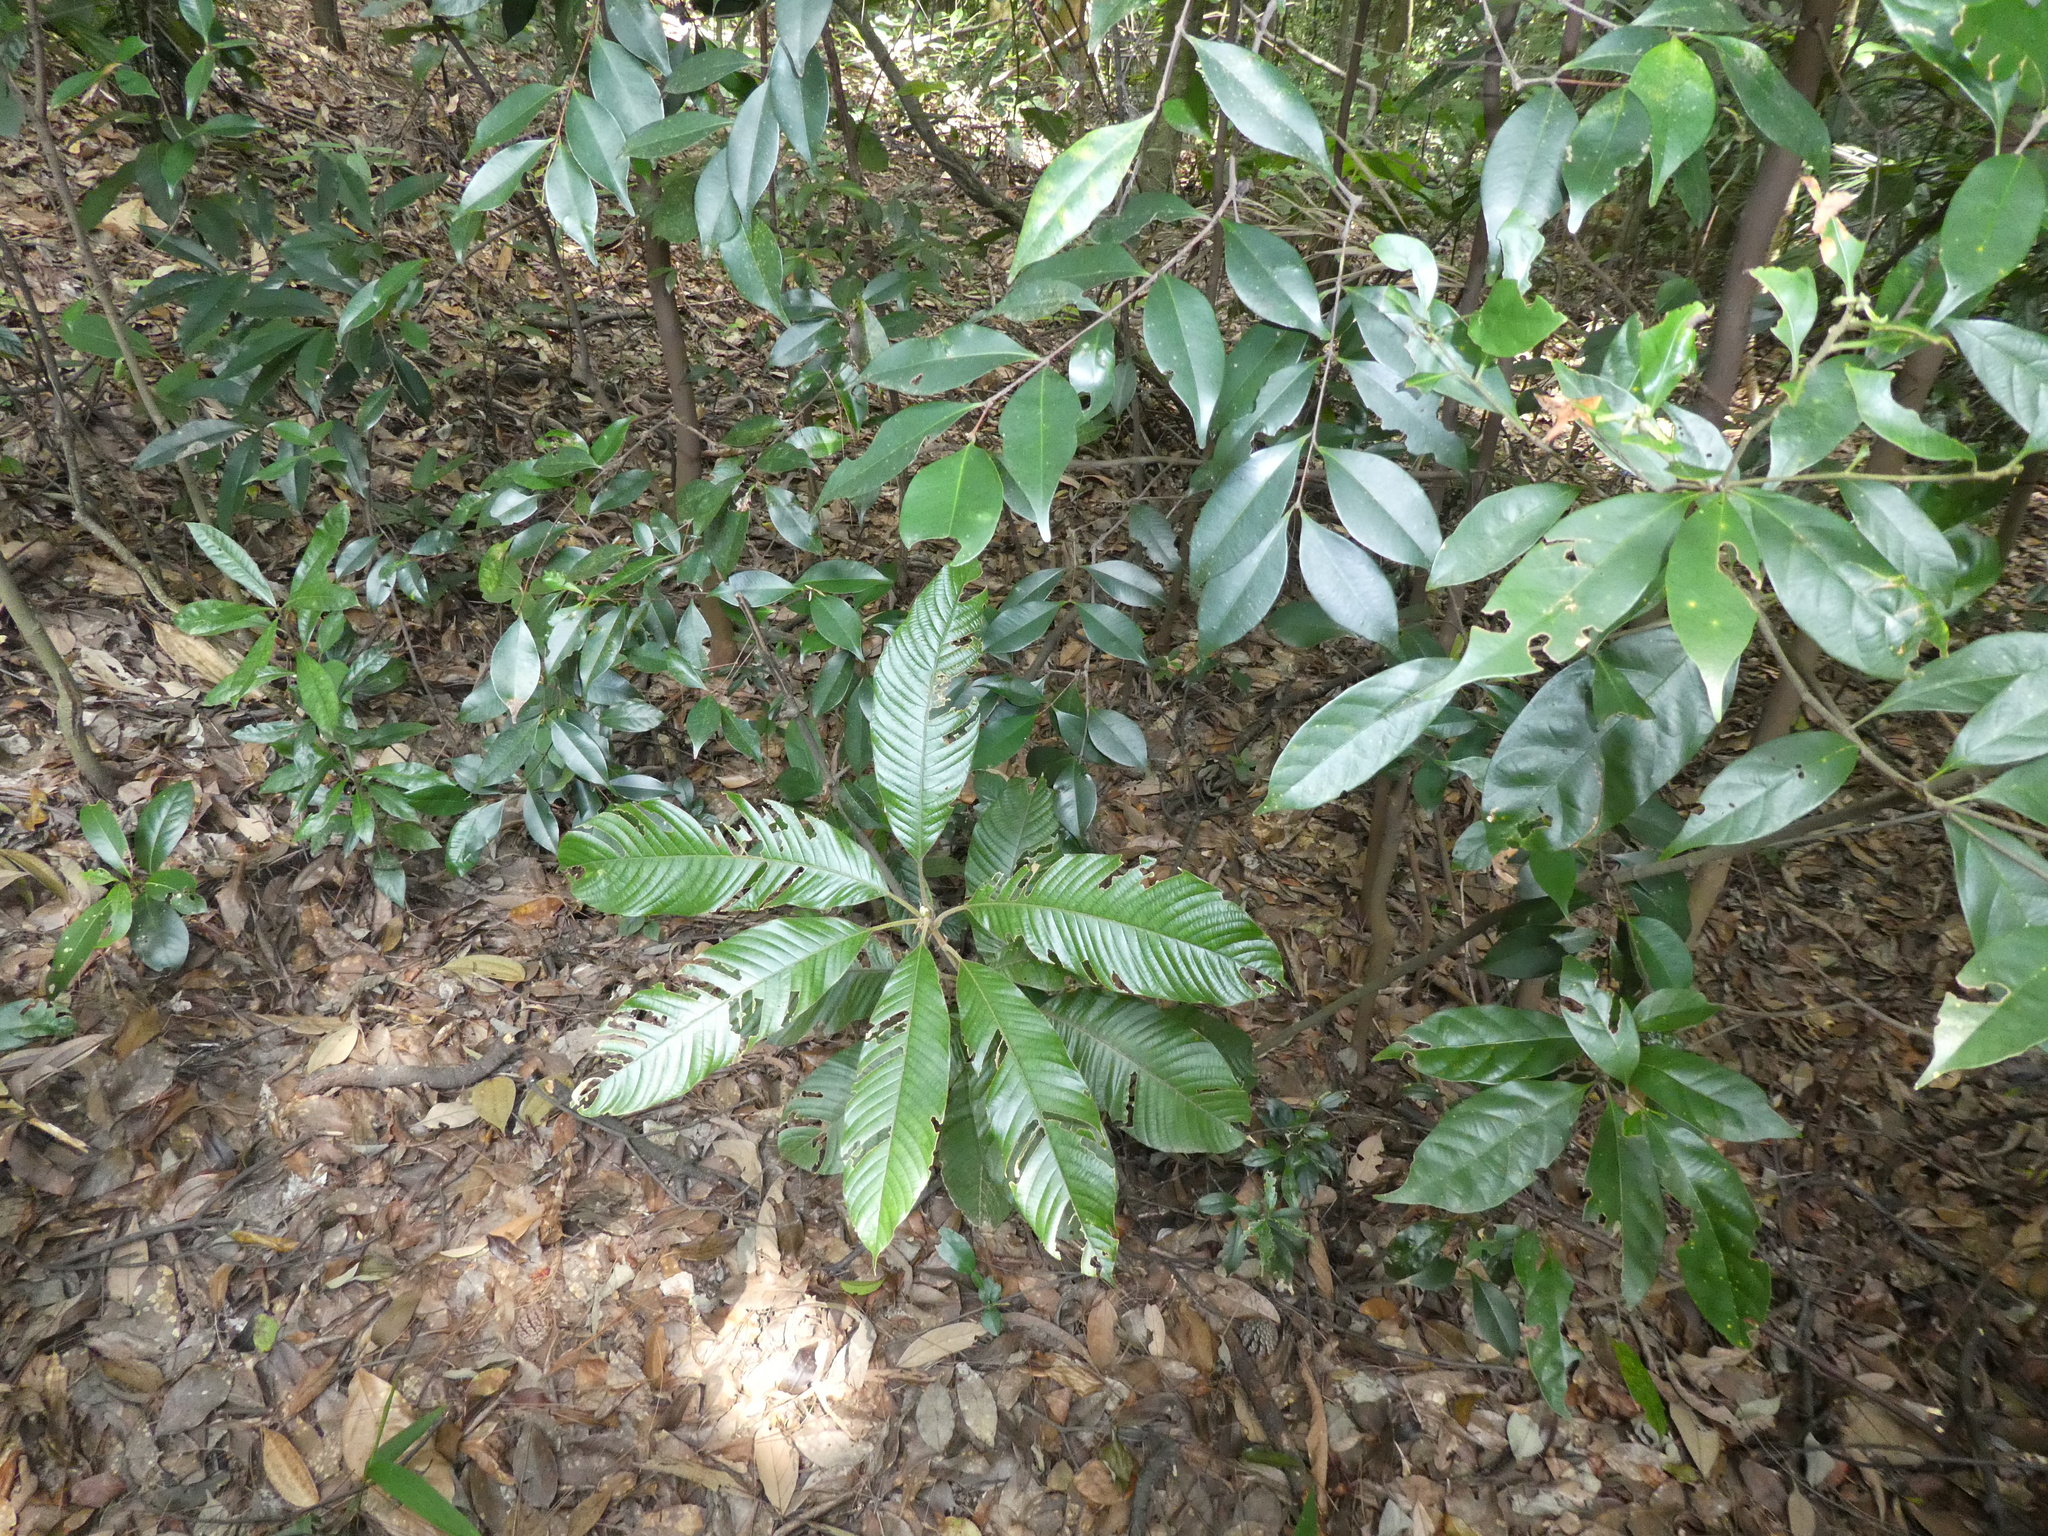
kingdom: Plantae
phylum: Tracheophyta
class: Magnoliopsida
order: Fagales
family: Fagaceae
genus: Lithocarpus
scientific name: Lithocarpus uvariifolius
